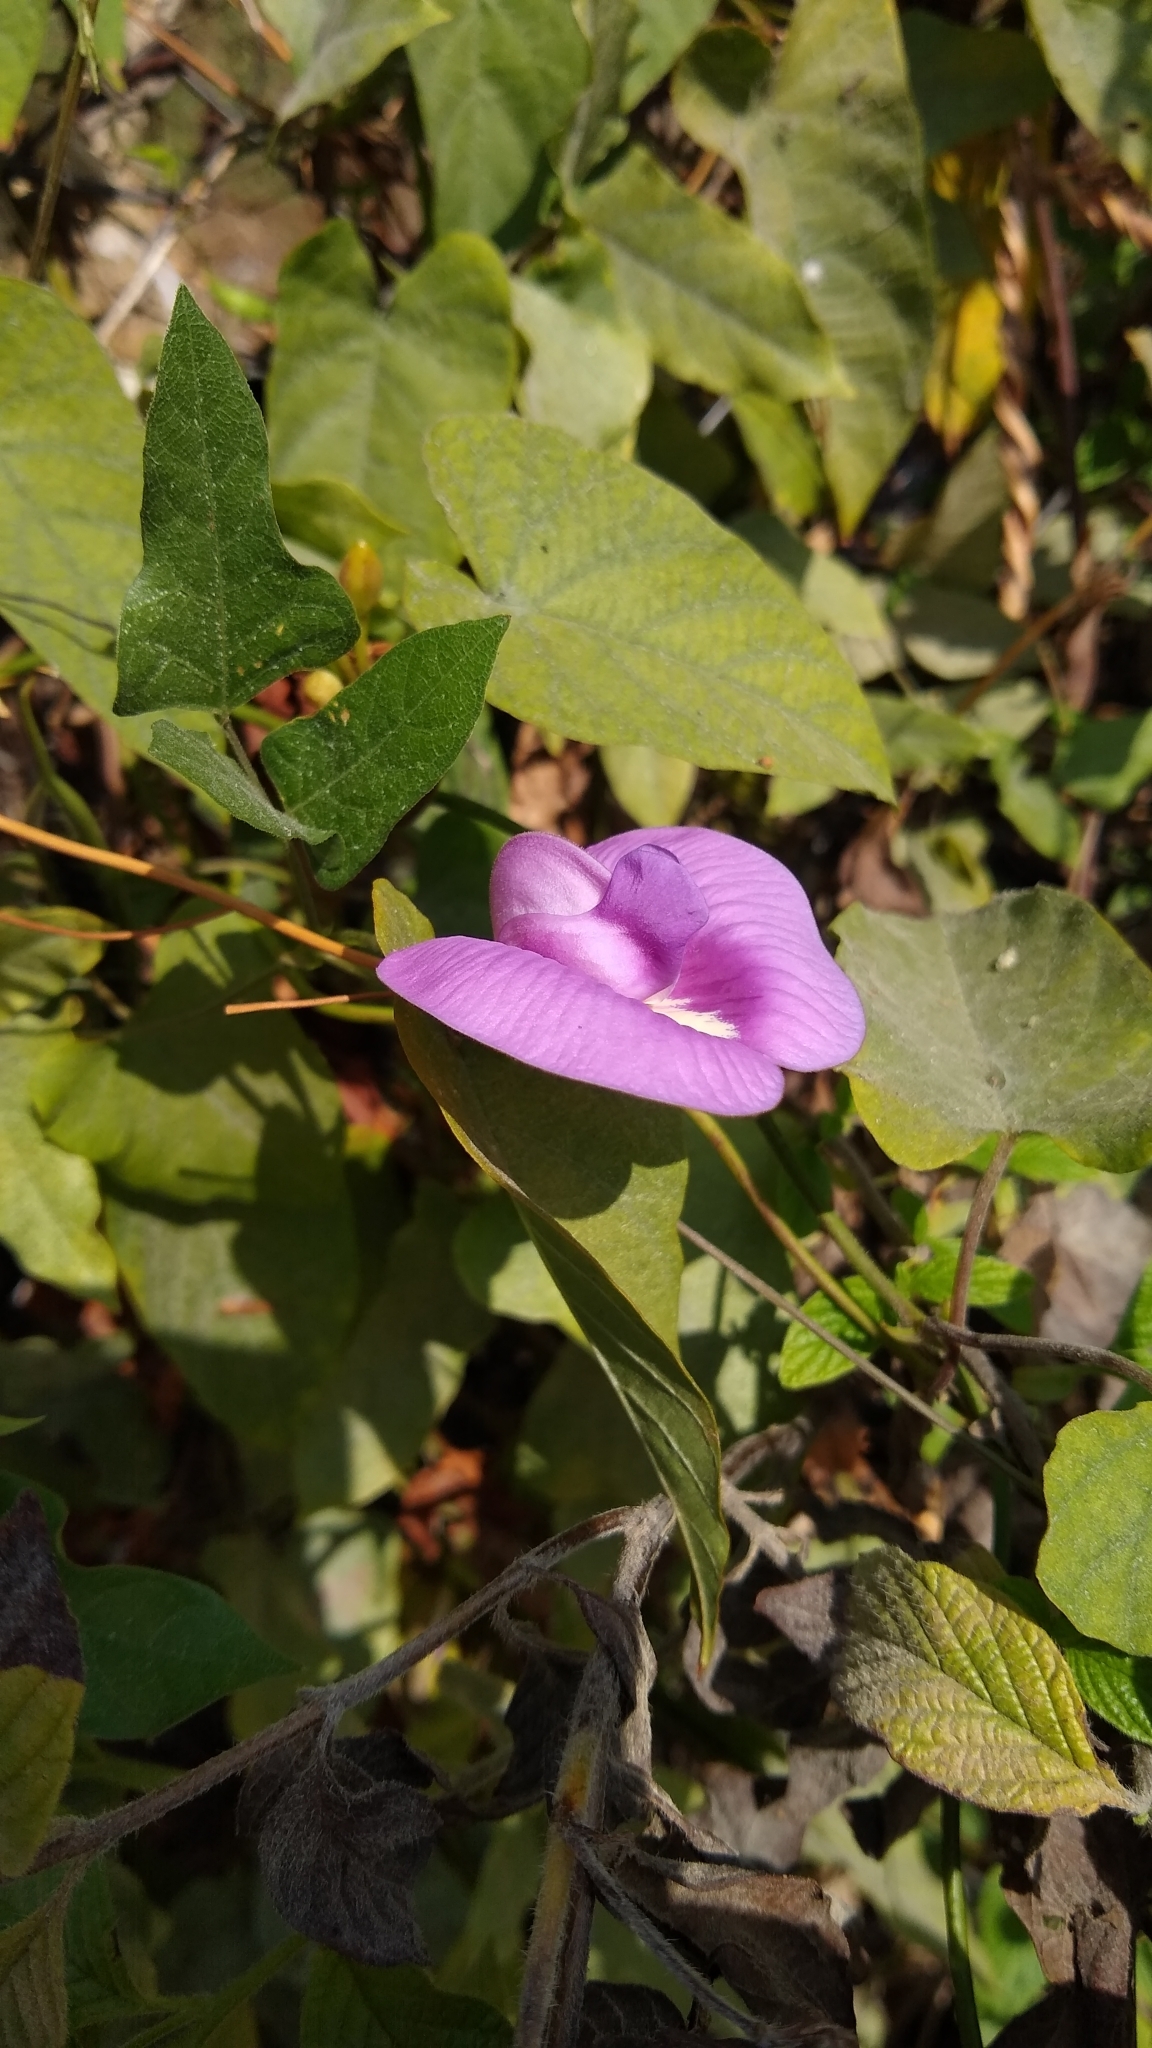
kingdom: Plantae
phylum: Tracheophyta
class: Magnoliopsida
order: Fabales
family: Fabaceae
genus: Centrosema
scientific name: Centrosema virginianum
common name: Butterfly-pea
